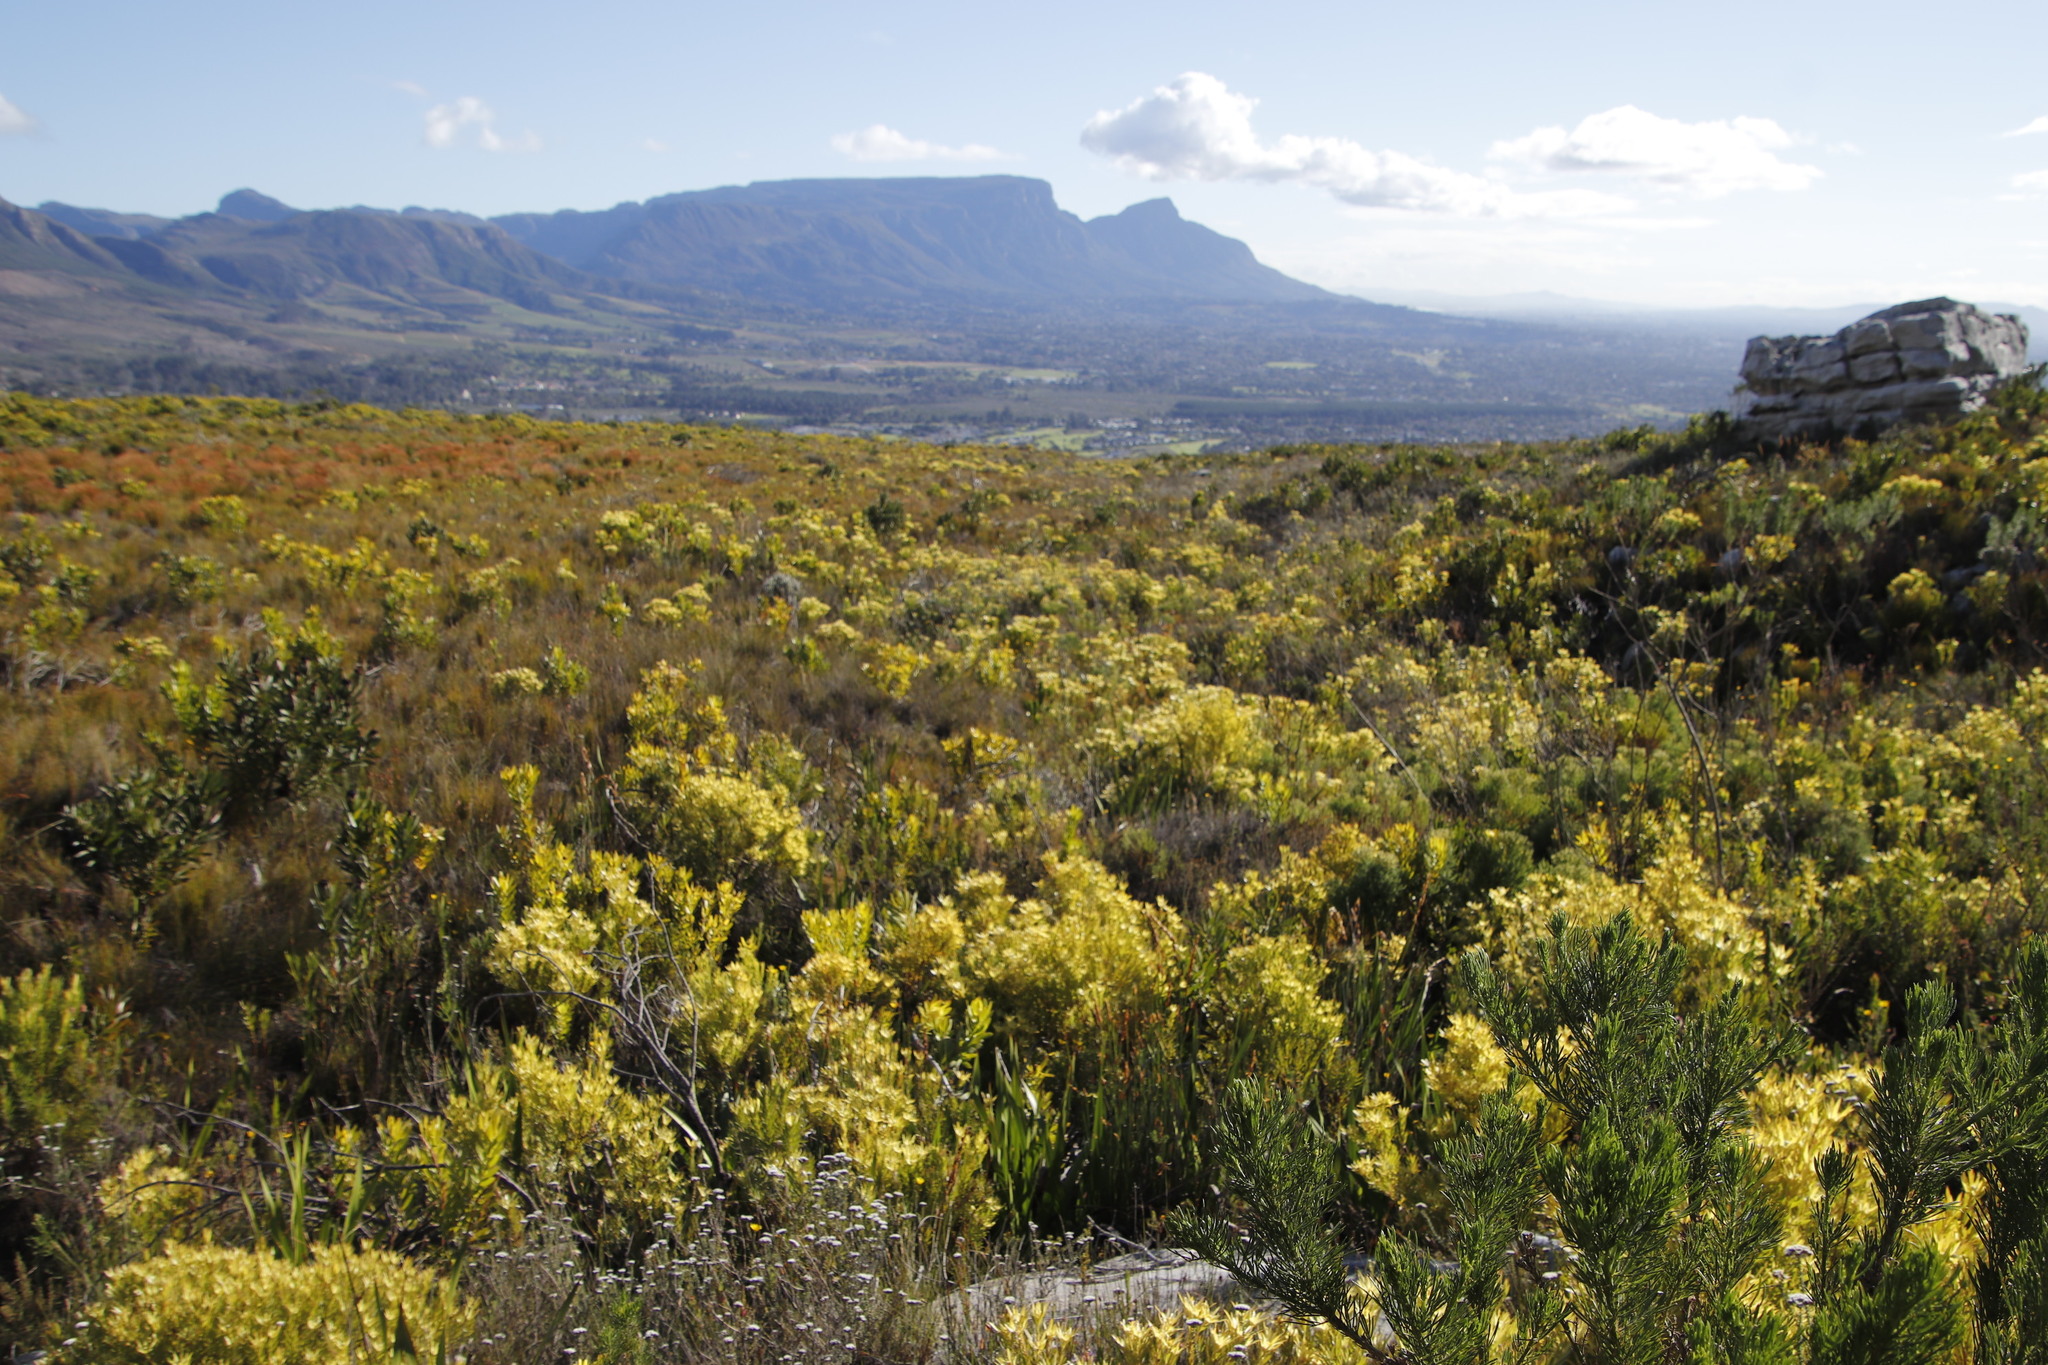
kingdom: Plantae
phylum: Tracheophyta
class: Magnoliopsida
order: Proteales
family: Proteaceae
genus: Leucadendron
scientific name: Leucadendron xanthoconus
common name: Sickle-leaf conebush
